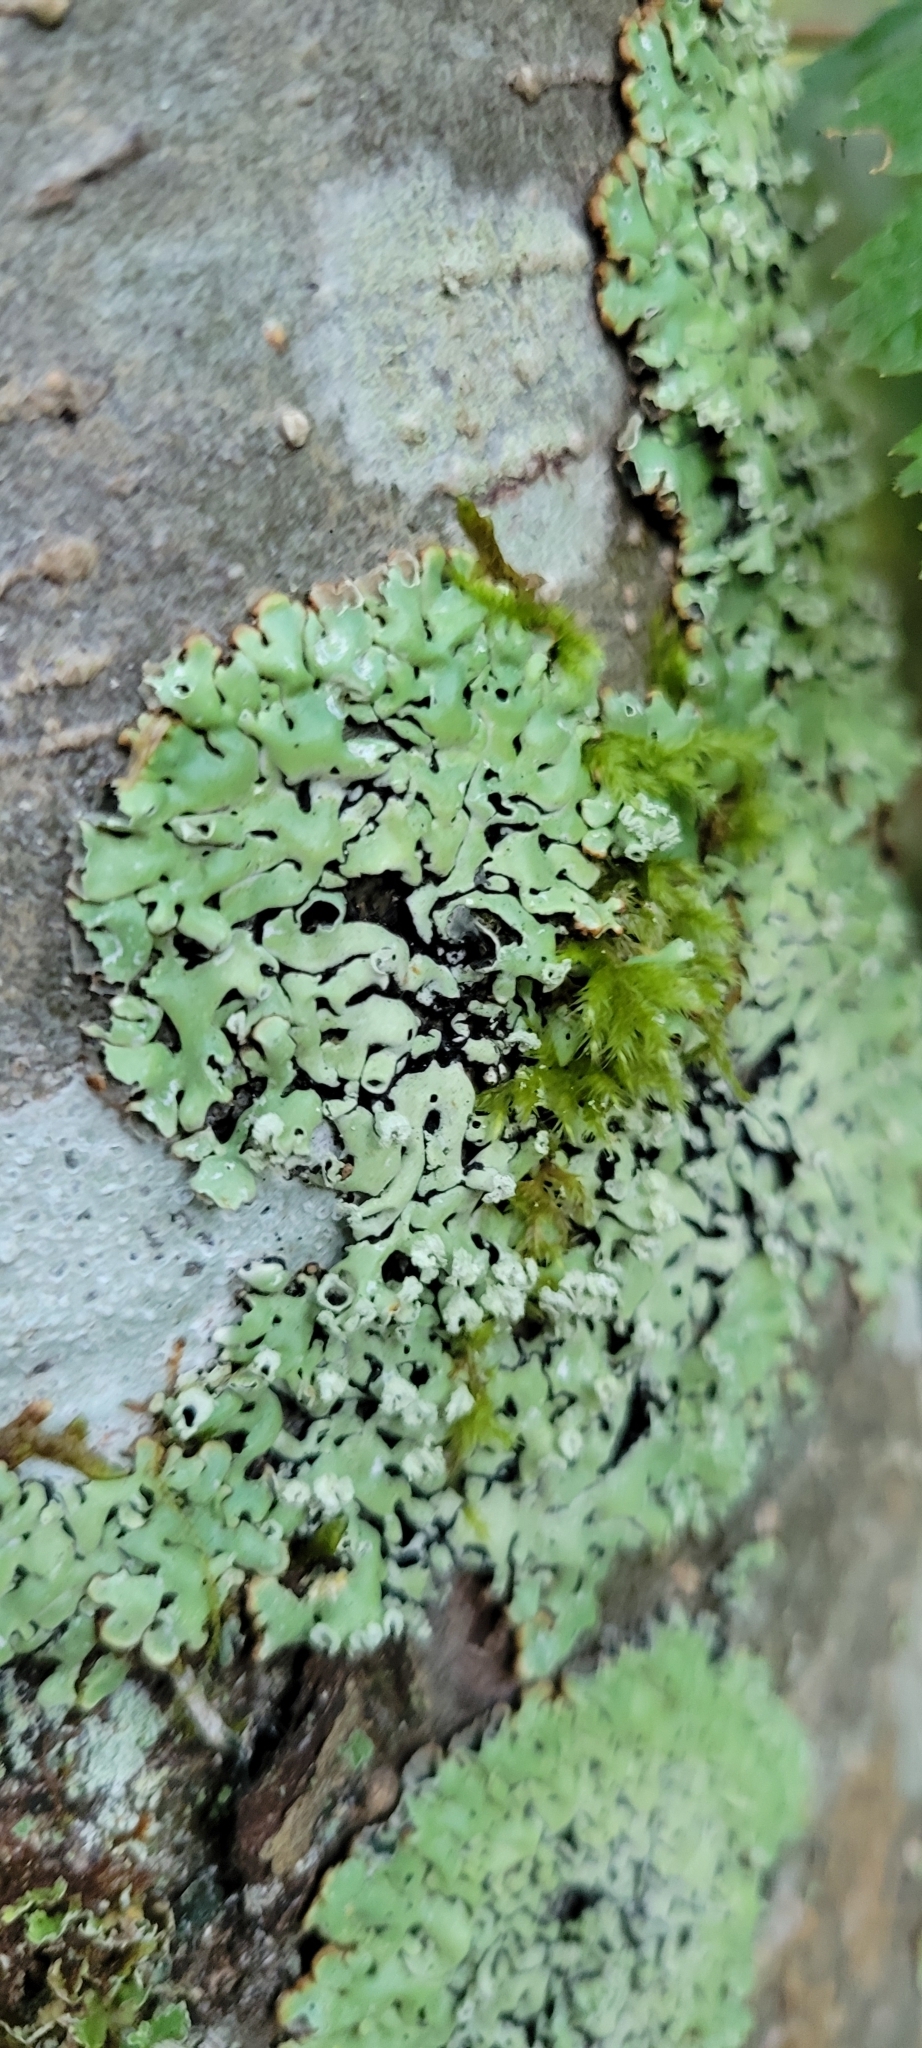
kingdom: Fungi
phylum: Ascomycota
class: Lecanoromycetes
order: Lecanorales
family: Parmeliaceae
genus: Menegazzia
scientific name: Menegazzia subsimilis
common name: Tree flute lichen
